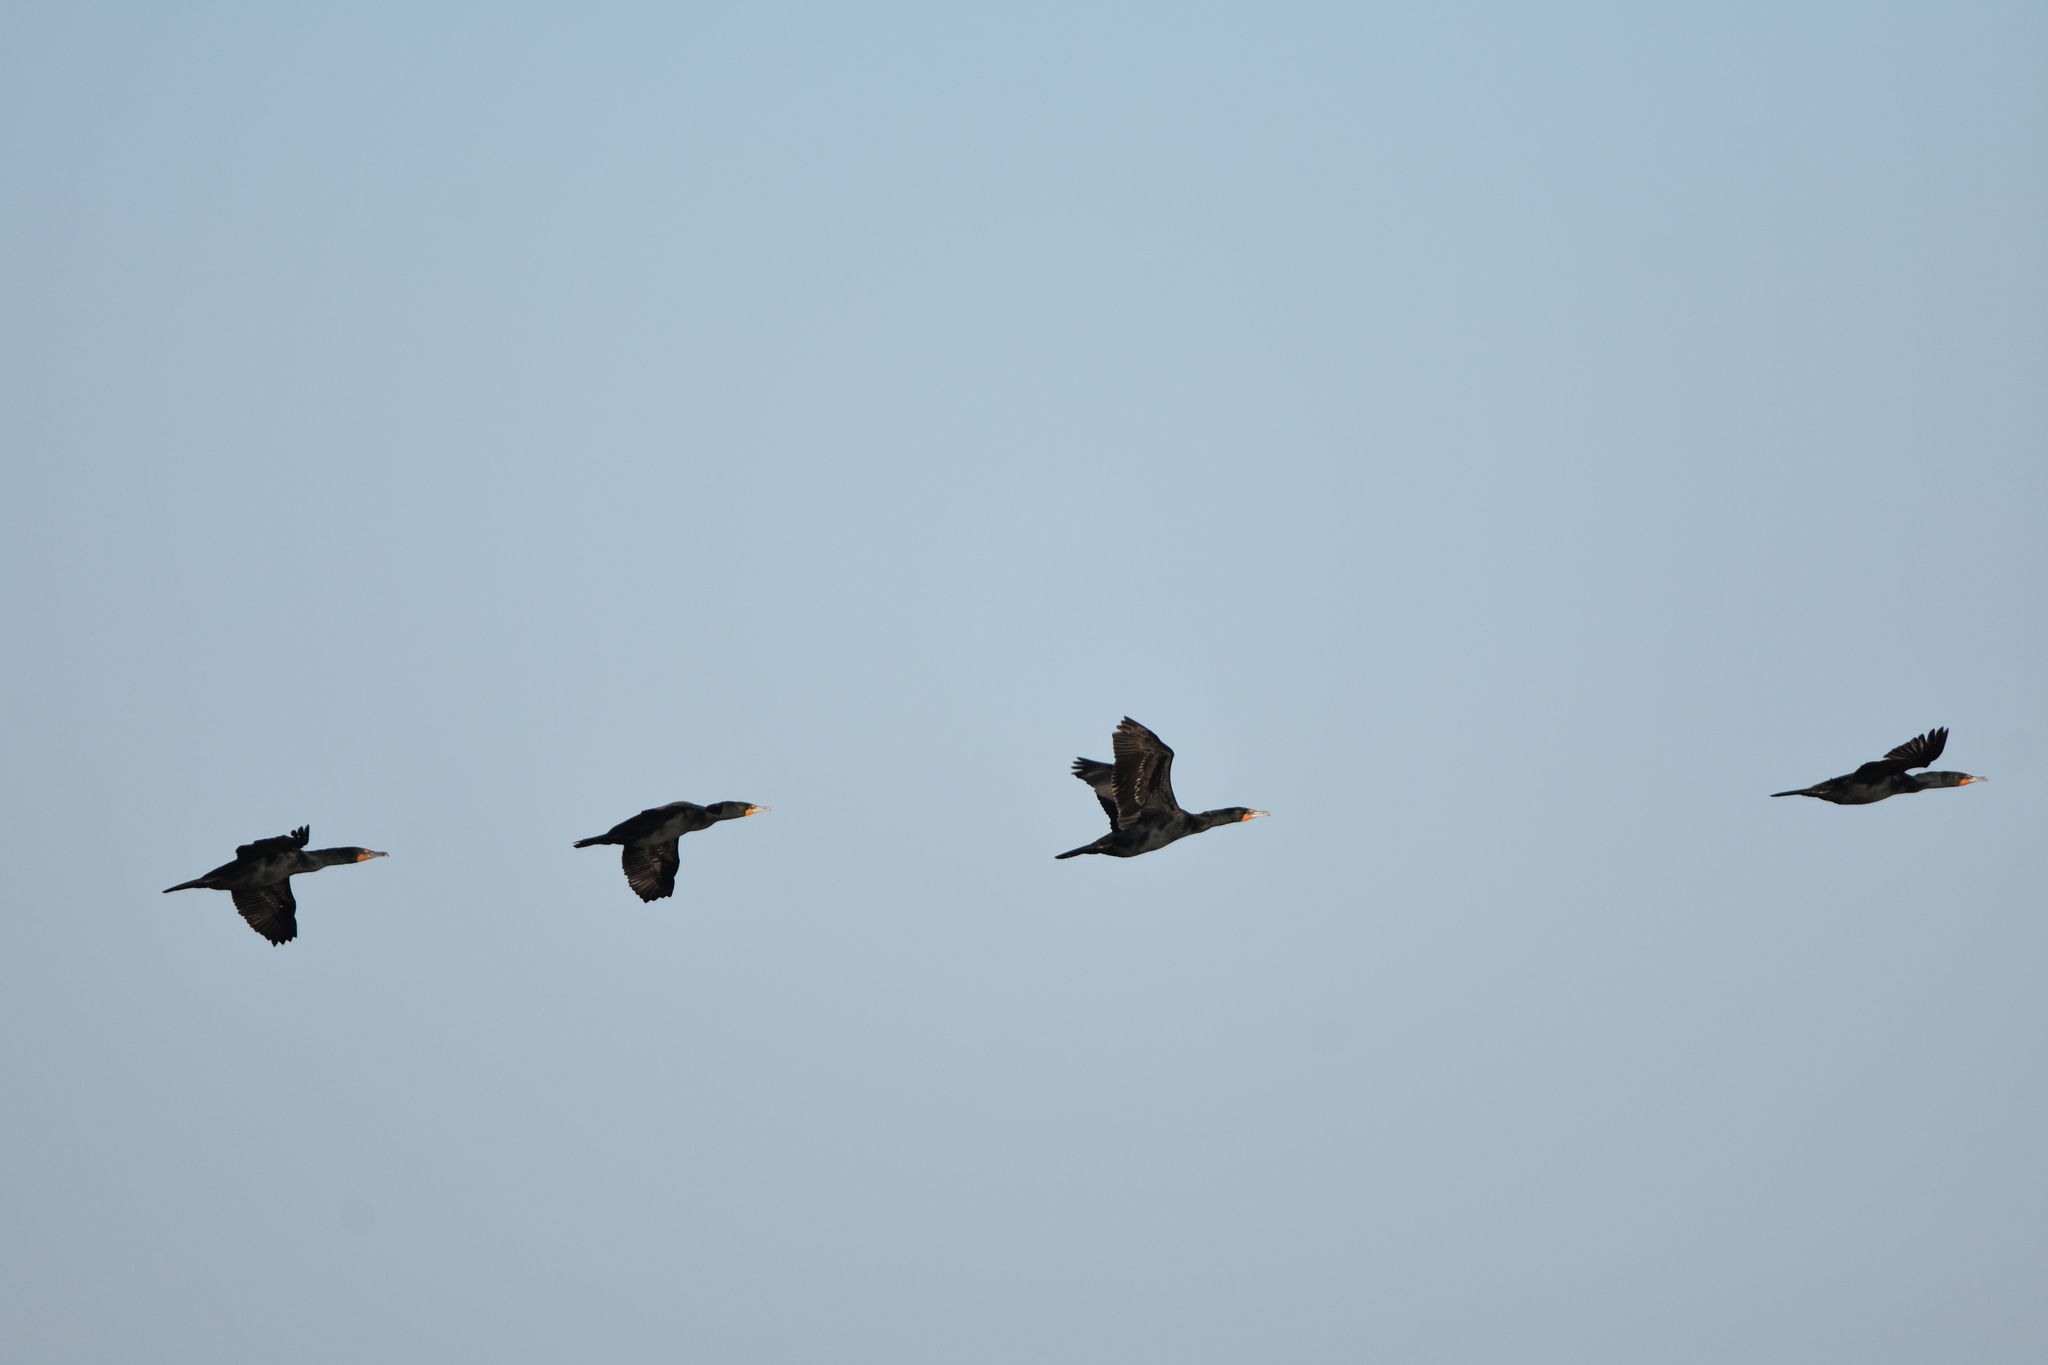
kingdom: Animalia
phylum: Chordata
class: Aves
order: Suliformes
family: Phalacrocoracidae
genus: Phalacrocorax
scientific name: Phalacrocorax auritus
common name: Double-crested cormorant
